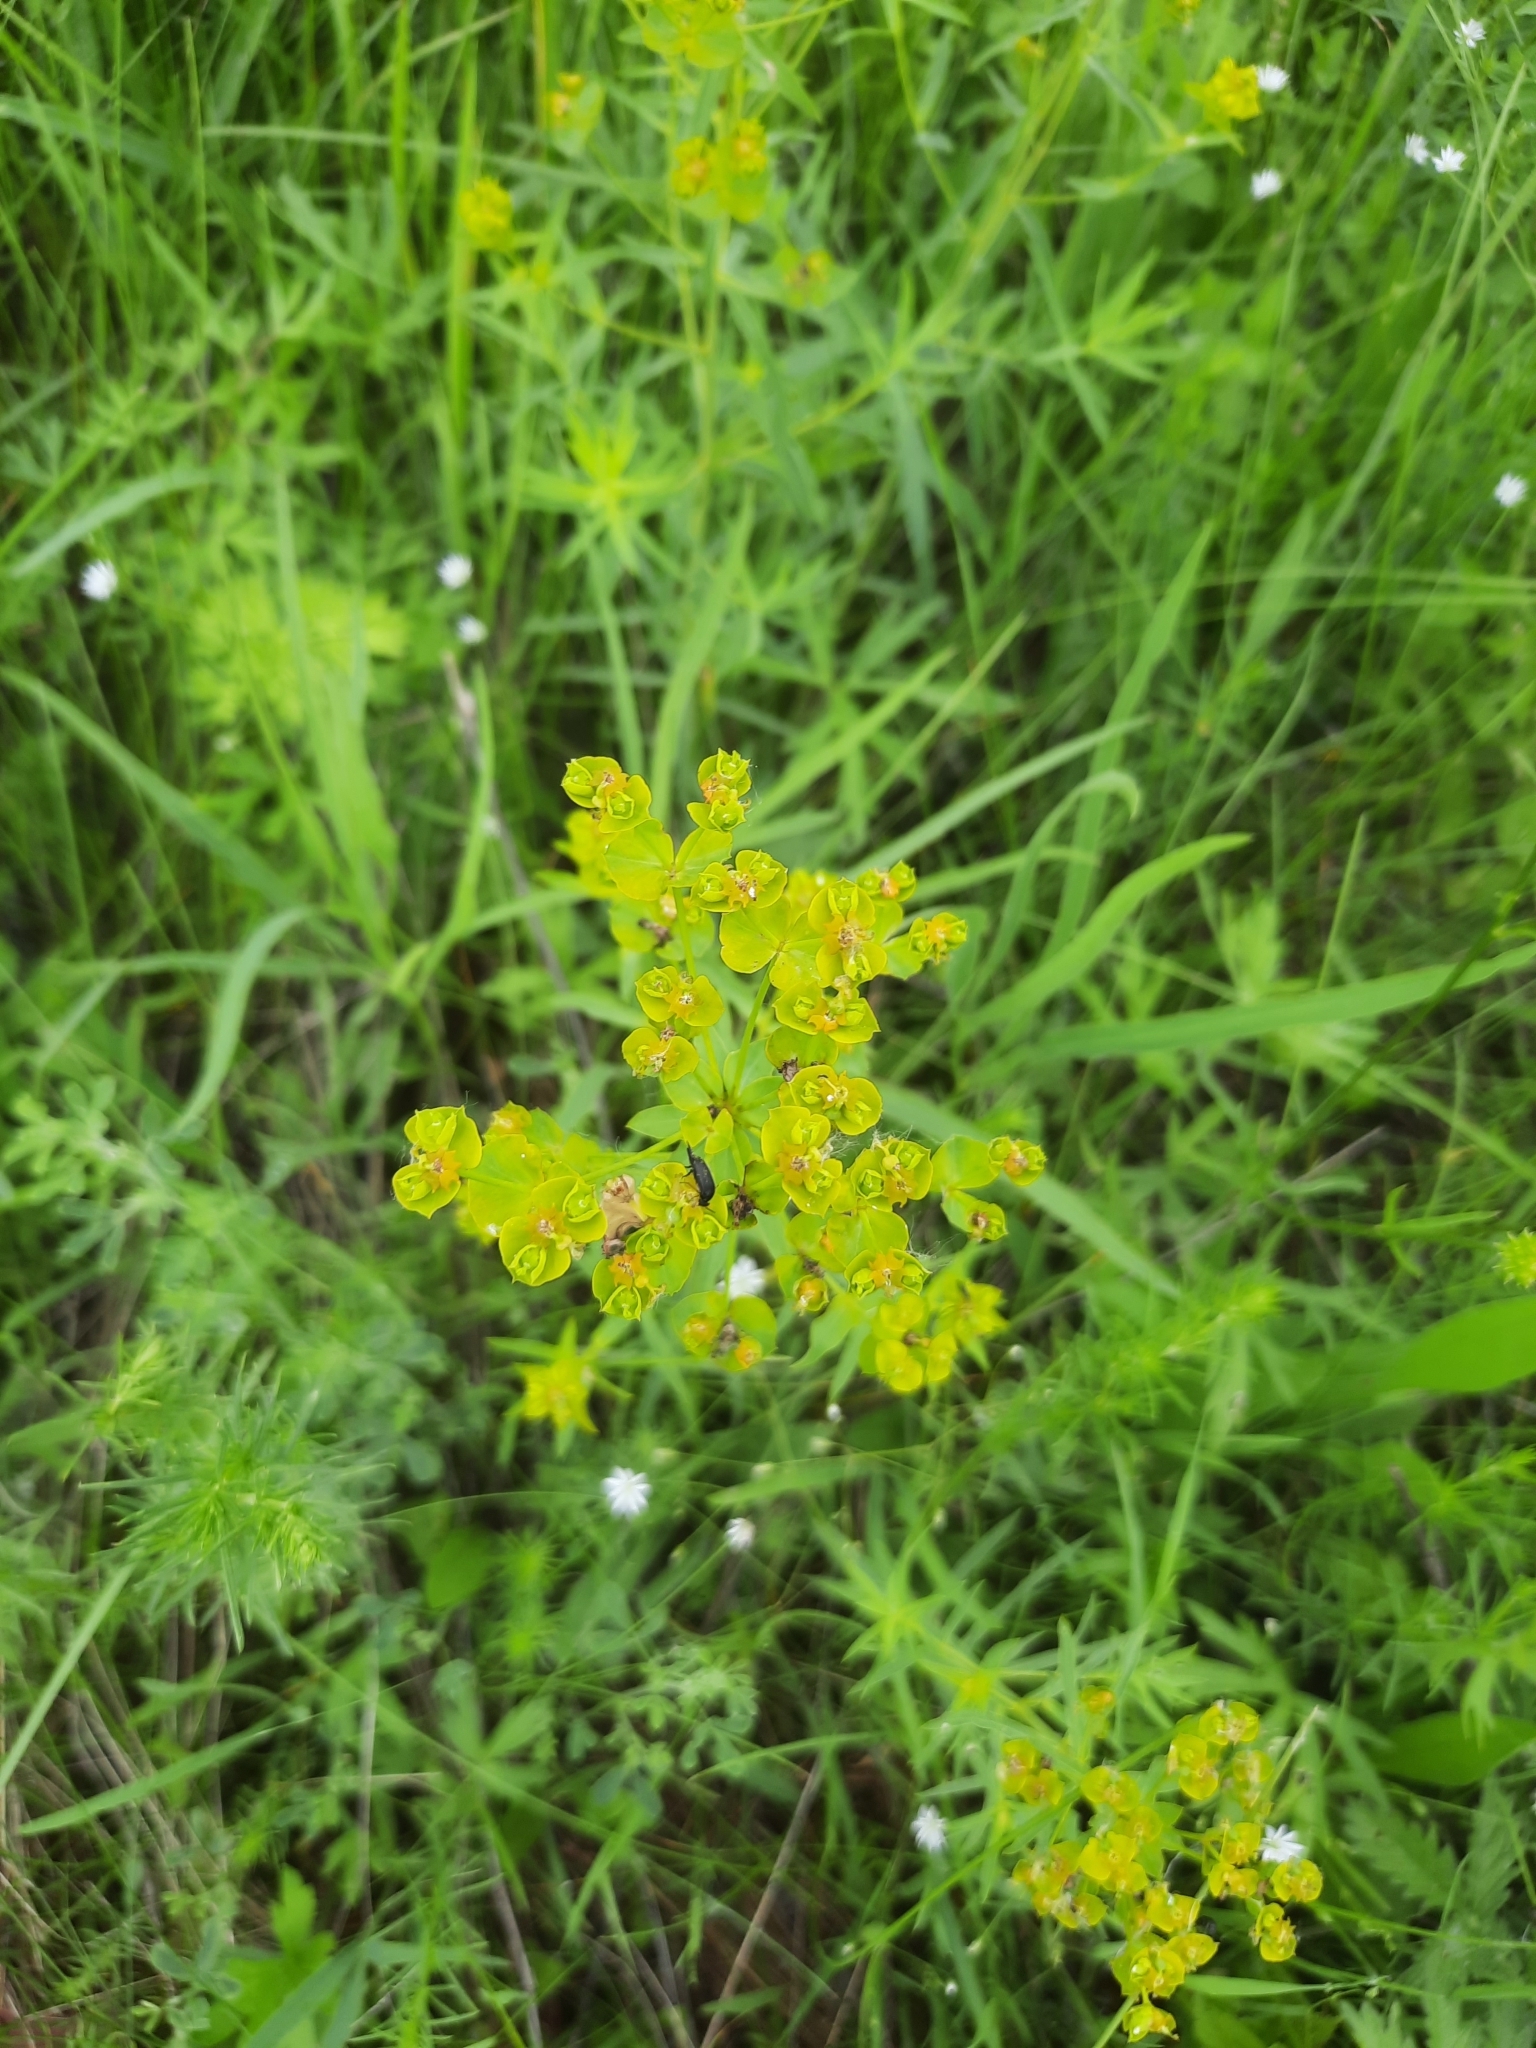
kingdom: Plantae
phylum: Tracheophyta
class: Magnoliopsida
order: Malpighiales
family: Euphorbiaceae
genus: Euphorbia
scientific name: Euphorbia virgata
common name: Leafy spurge
